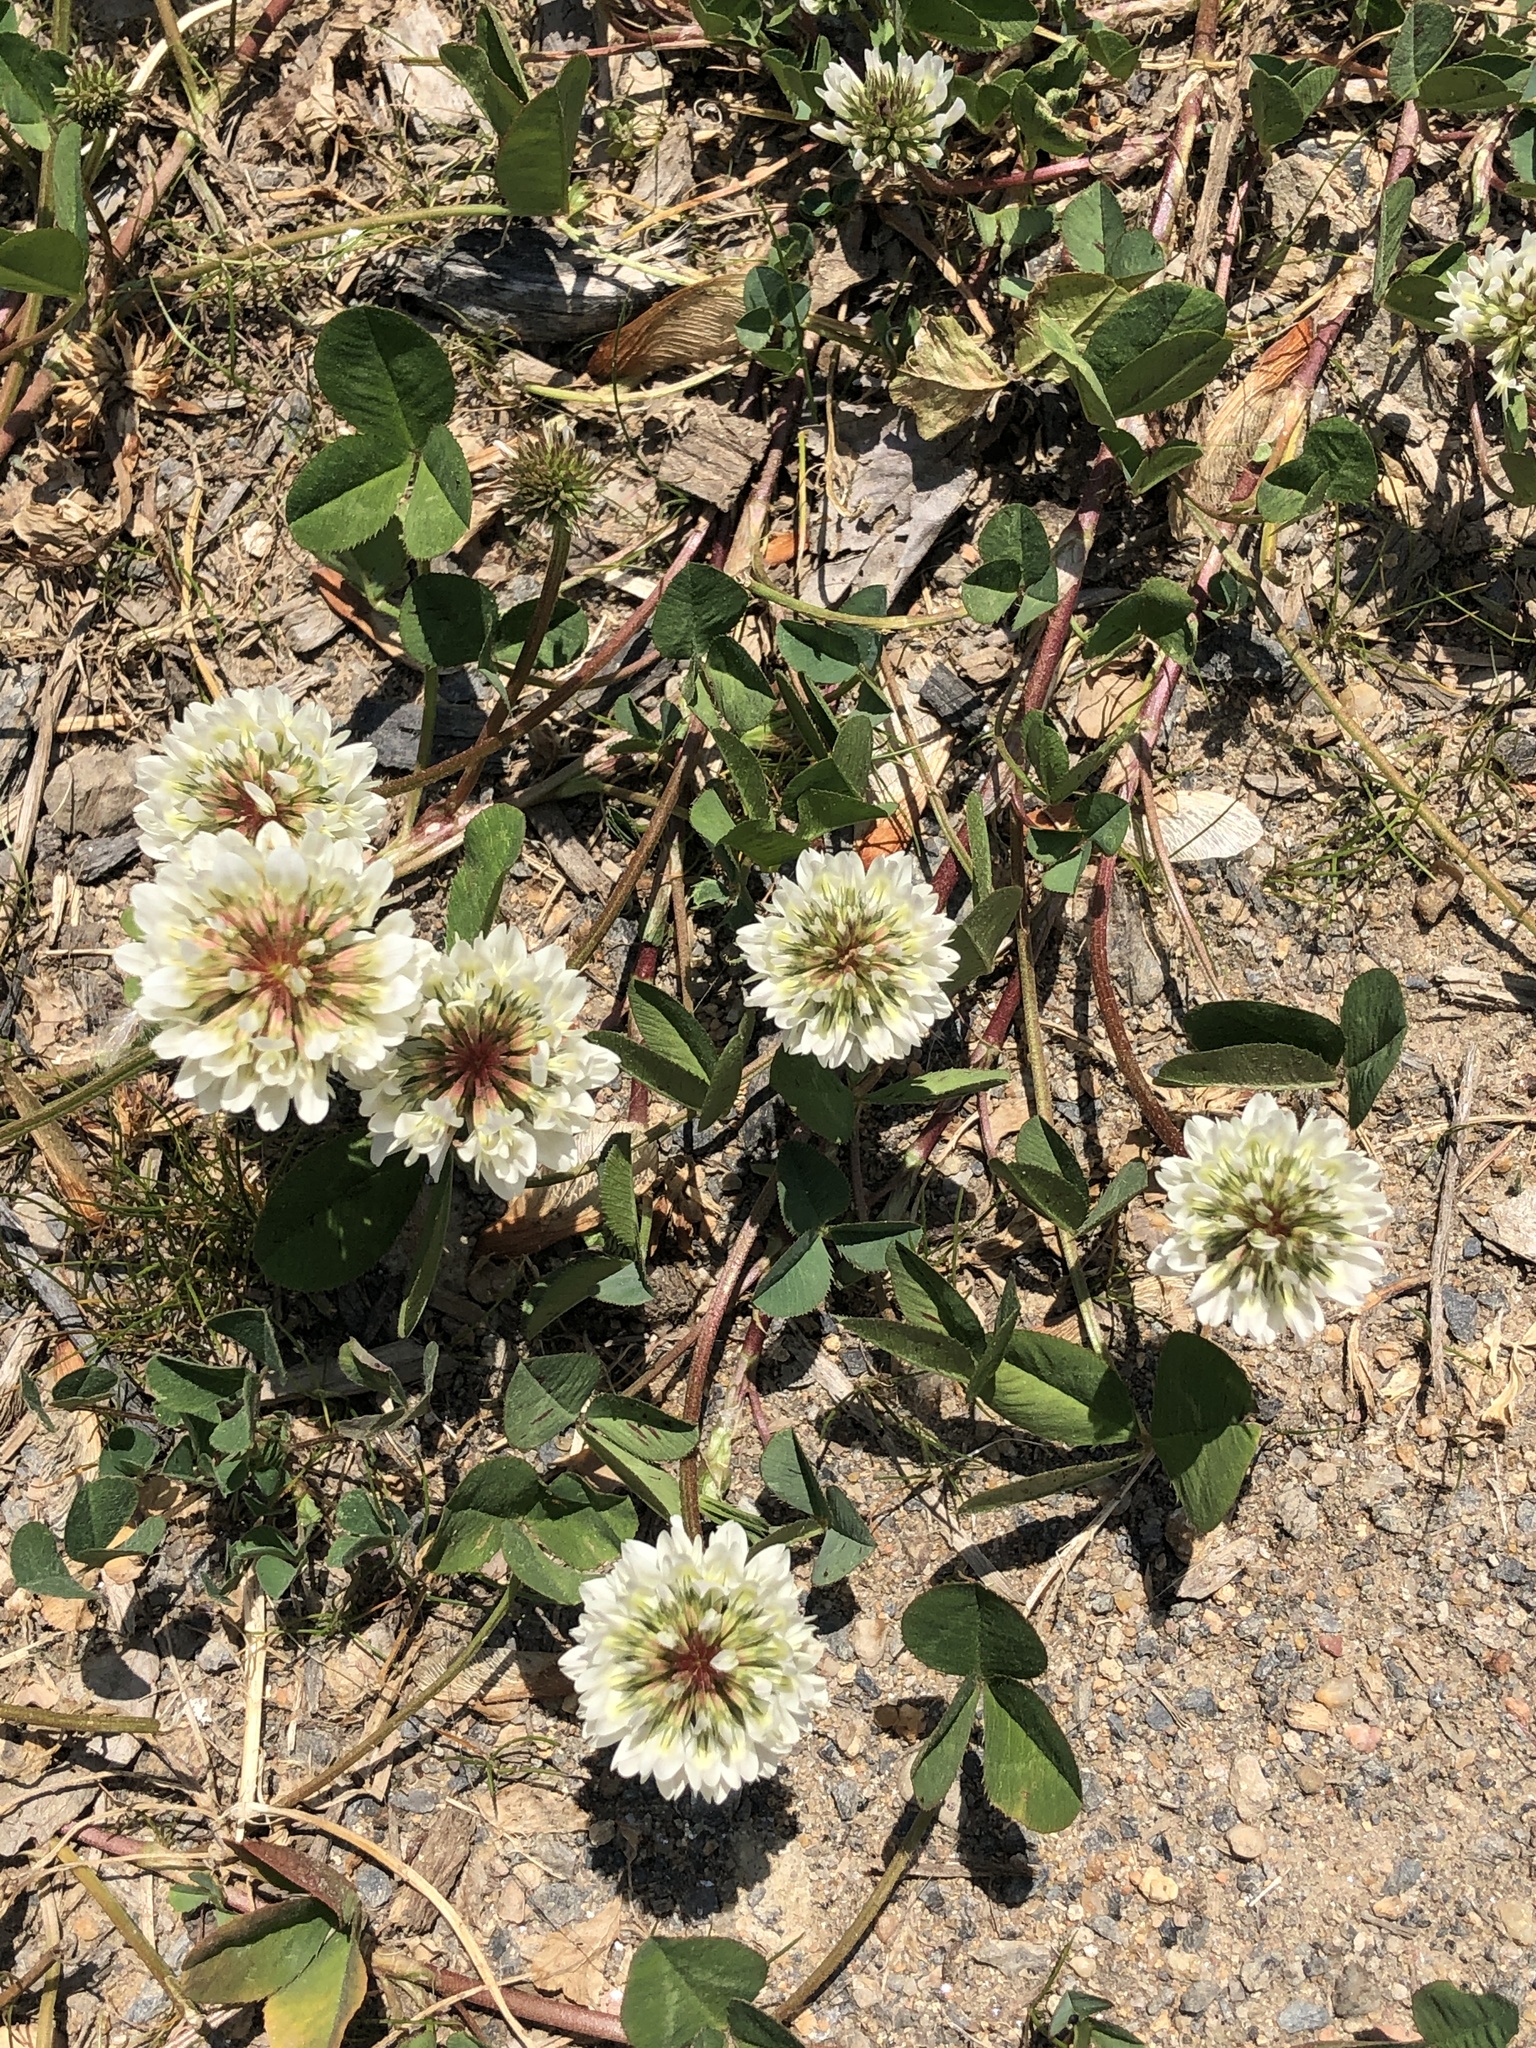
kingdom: Plantae
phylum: Tracheophyta
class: Magnoliopsida
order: Fabales
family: Fabaceae
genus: Trifolium
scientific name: Trifolium repens
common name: White clover
